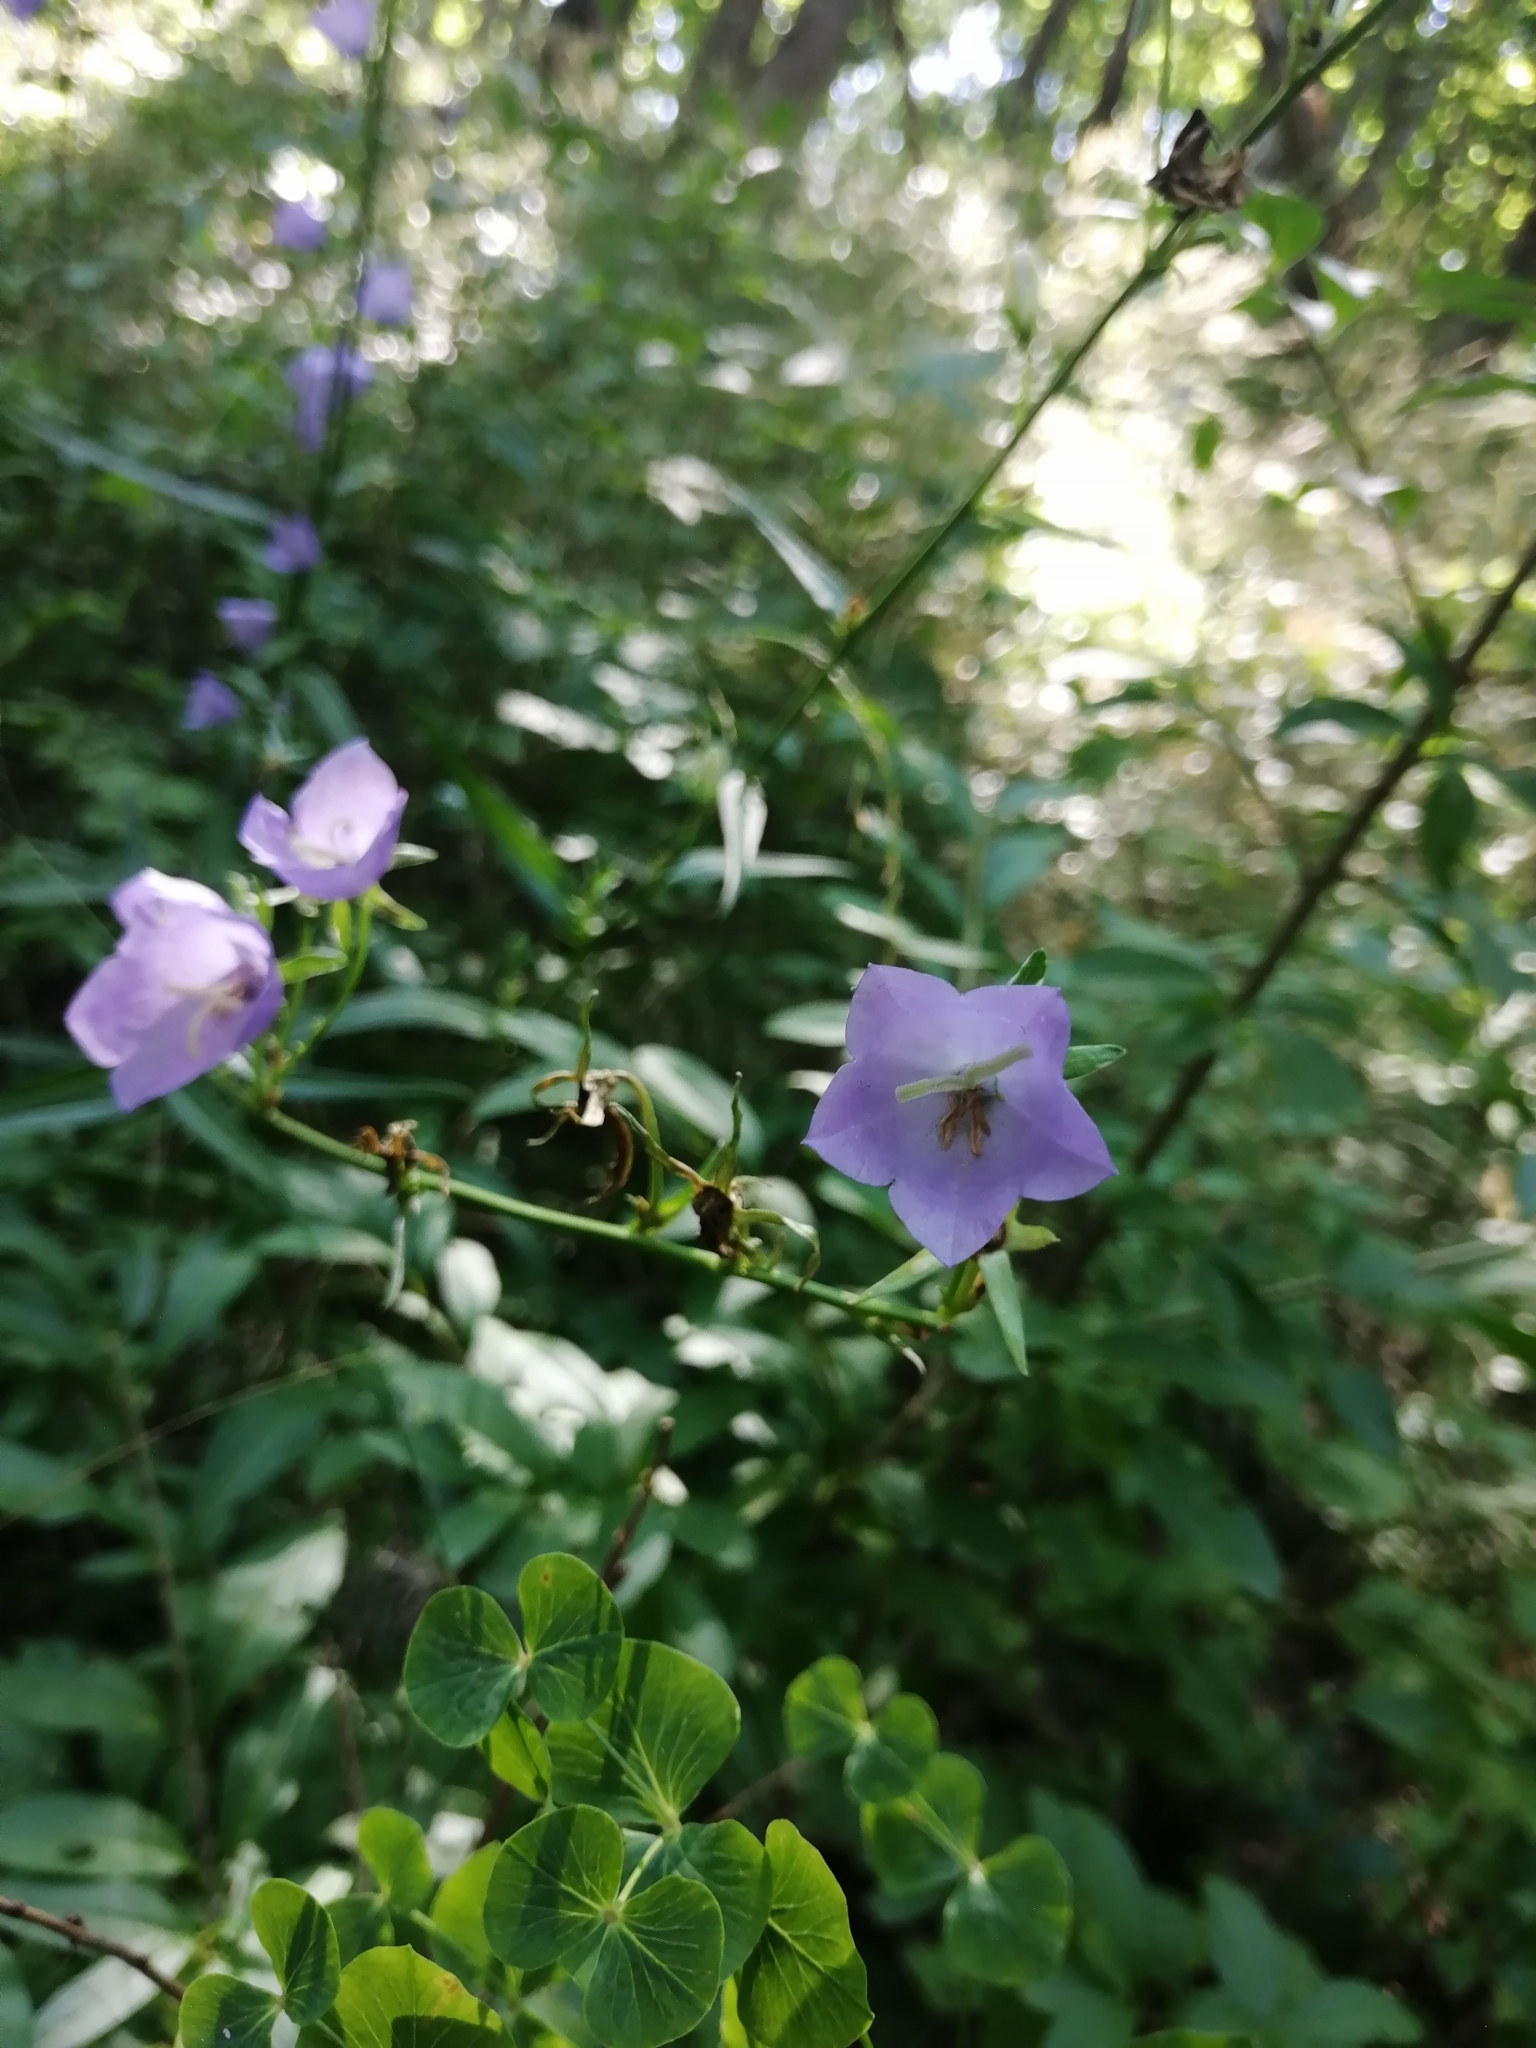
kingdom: Plantae
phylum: Tracheophyta
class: Magnoliopsida
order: Asterales
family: Campanulaceae
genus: Campanula
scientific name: Campanula persicifolia
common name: Peach-leaved bellflower
